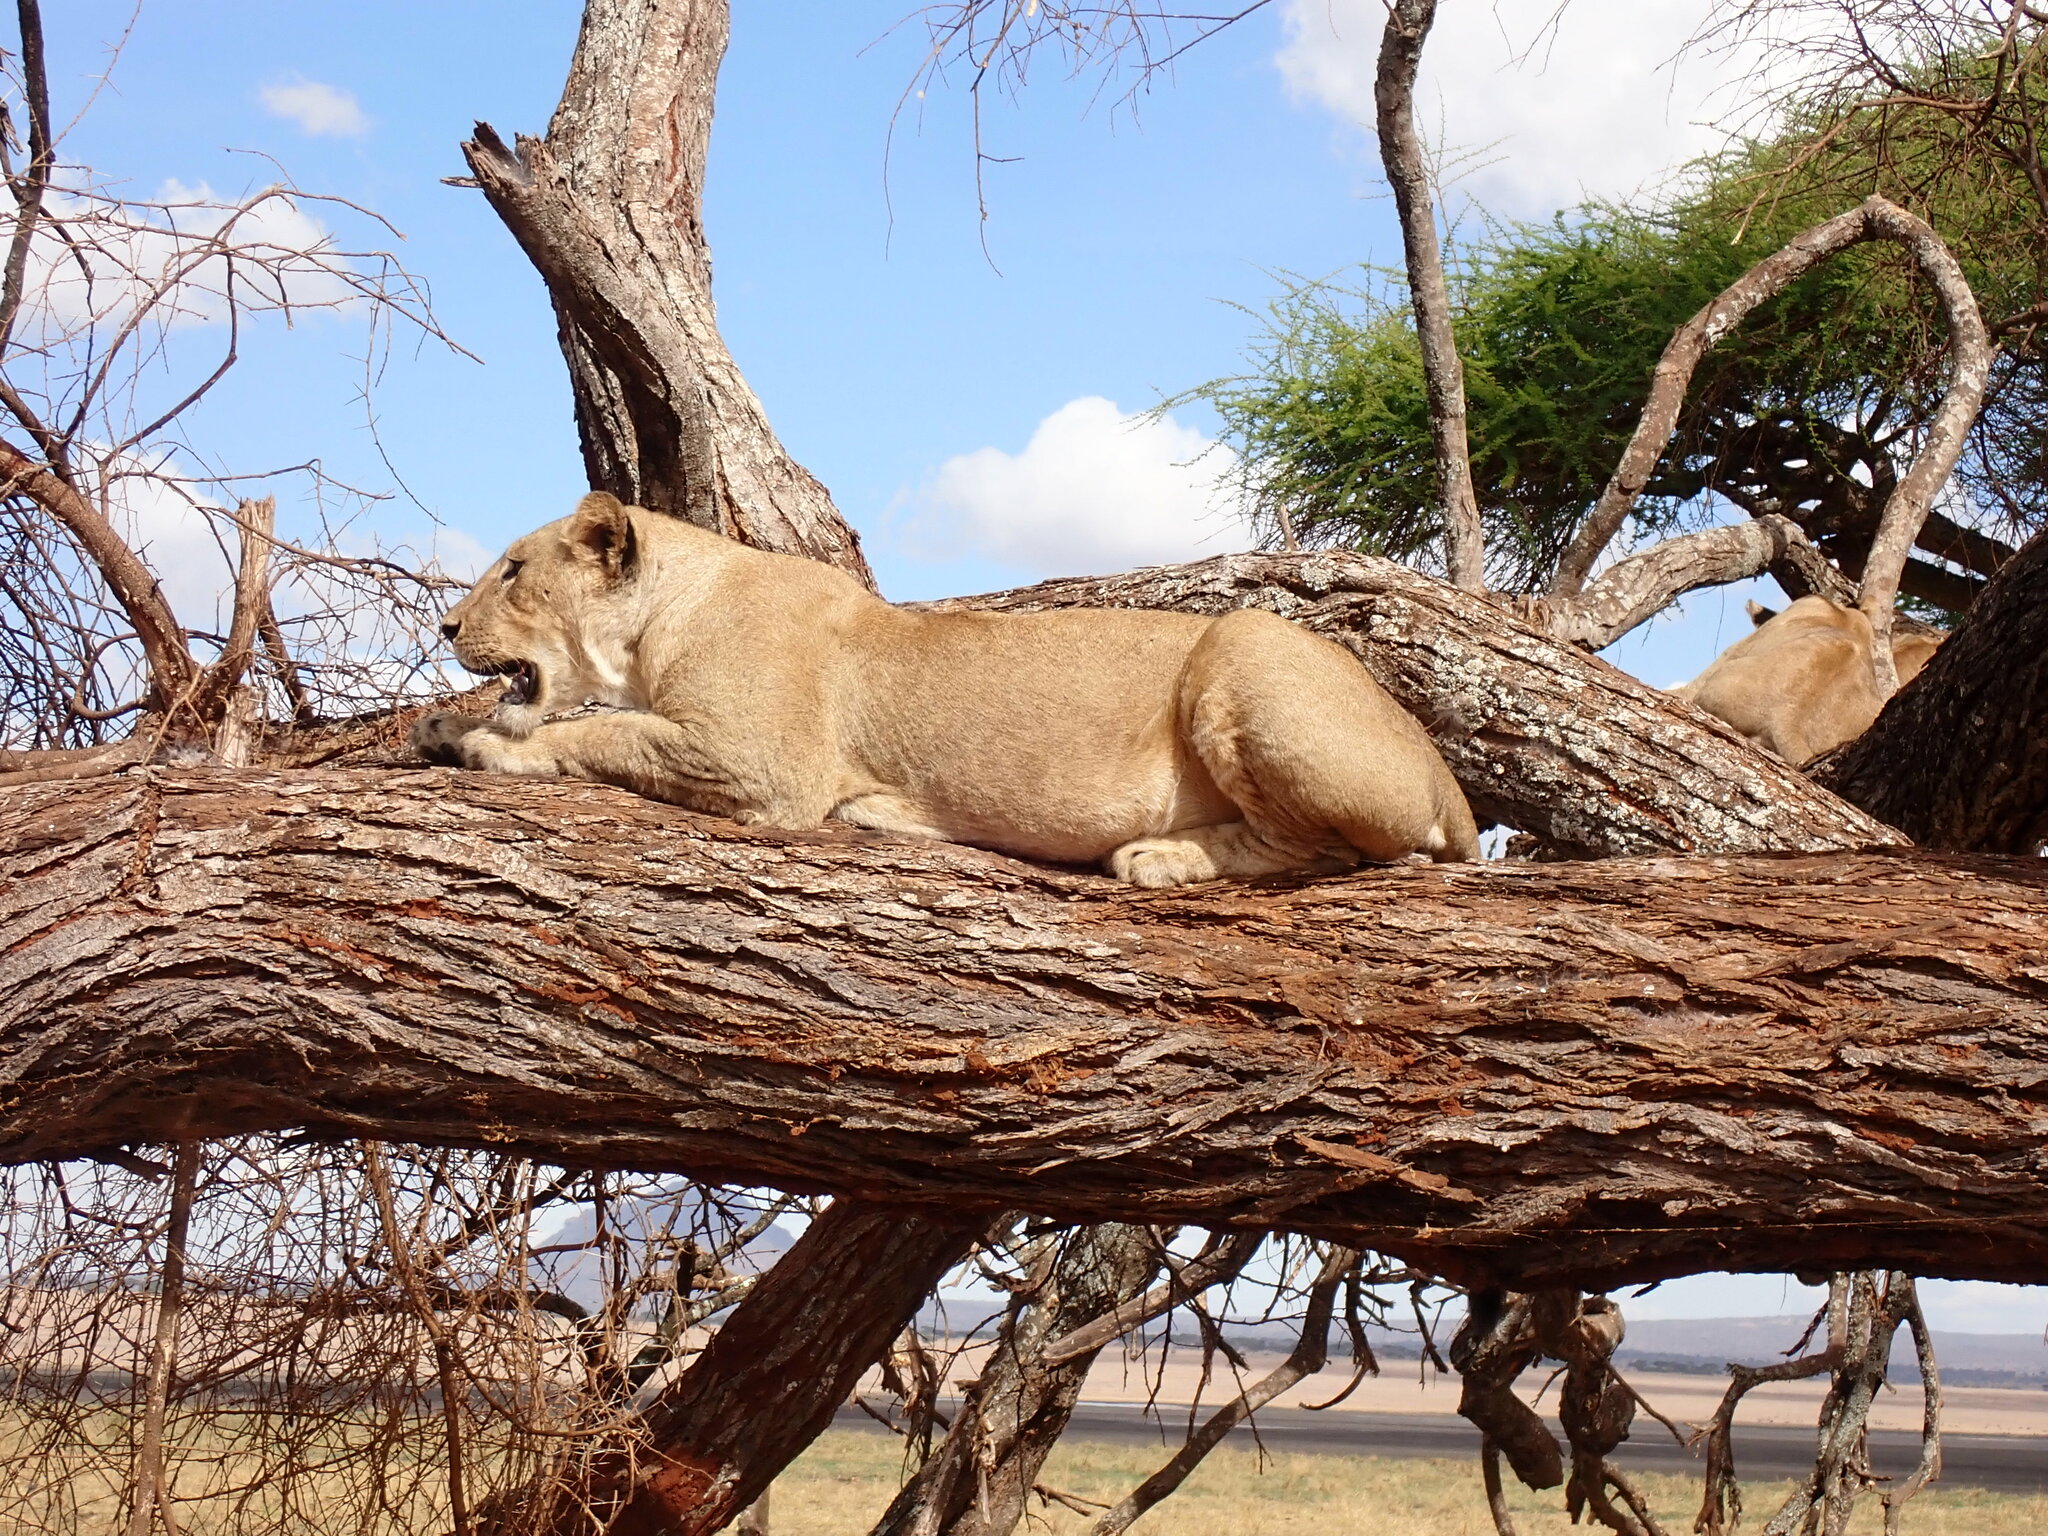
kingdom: Animalia
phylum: Chordata
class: Mammalia
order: Carnivora
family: Felidae
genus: Panthera
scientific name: Panthera leo
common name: Lion
